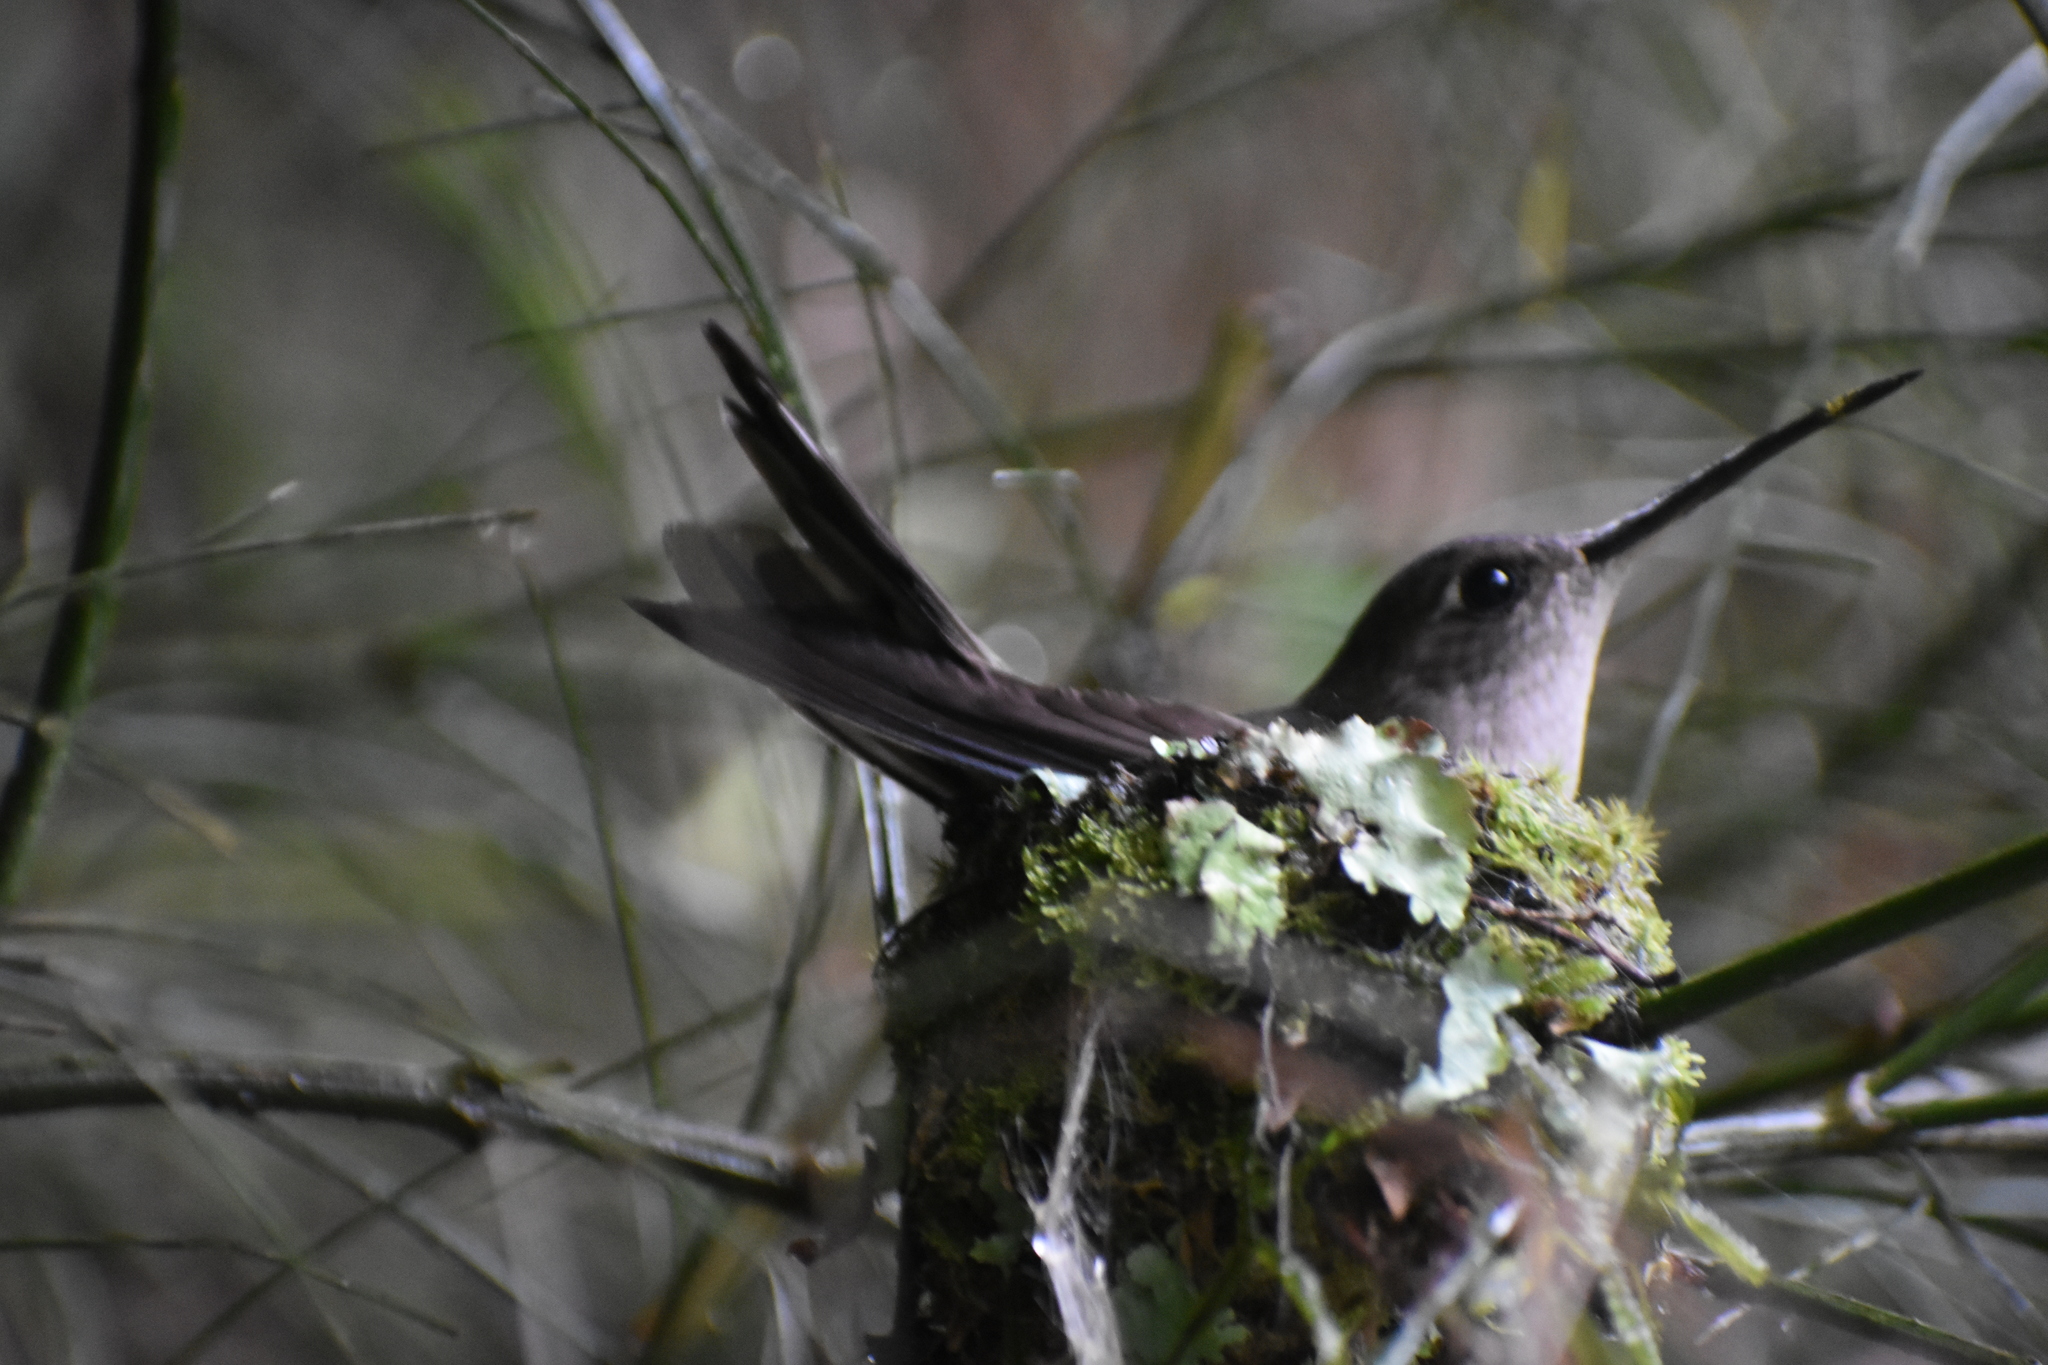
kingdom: Animalia
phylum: Chordata
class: Aves
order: Apodiformes
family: Trochilidae
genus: Pampa
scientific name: Pampa curvipennis
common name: Curve-winged sabrewing
